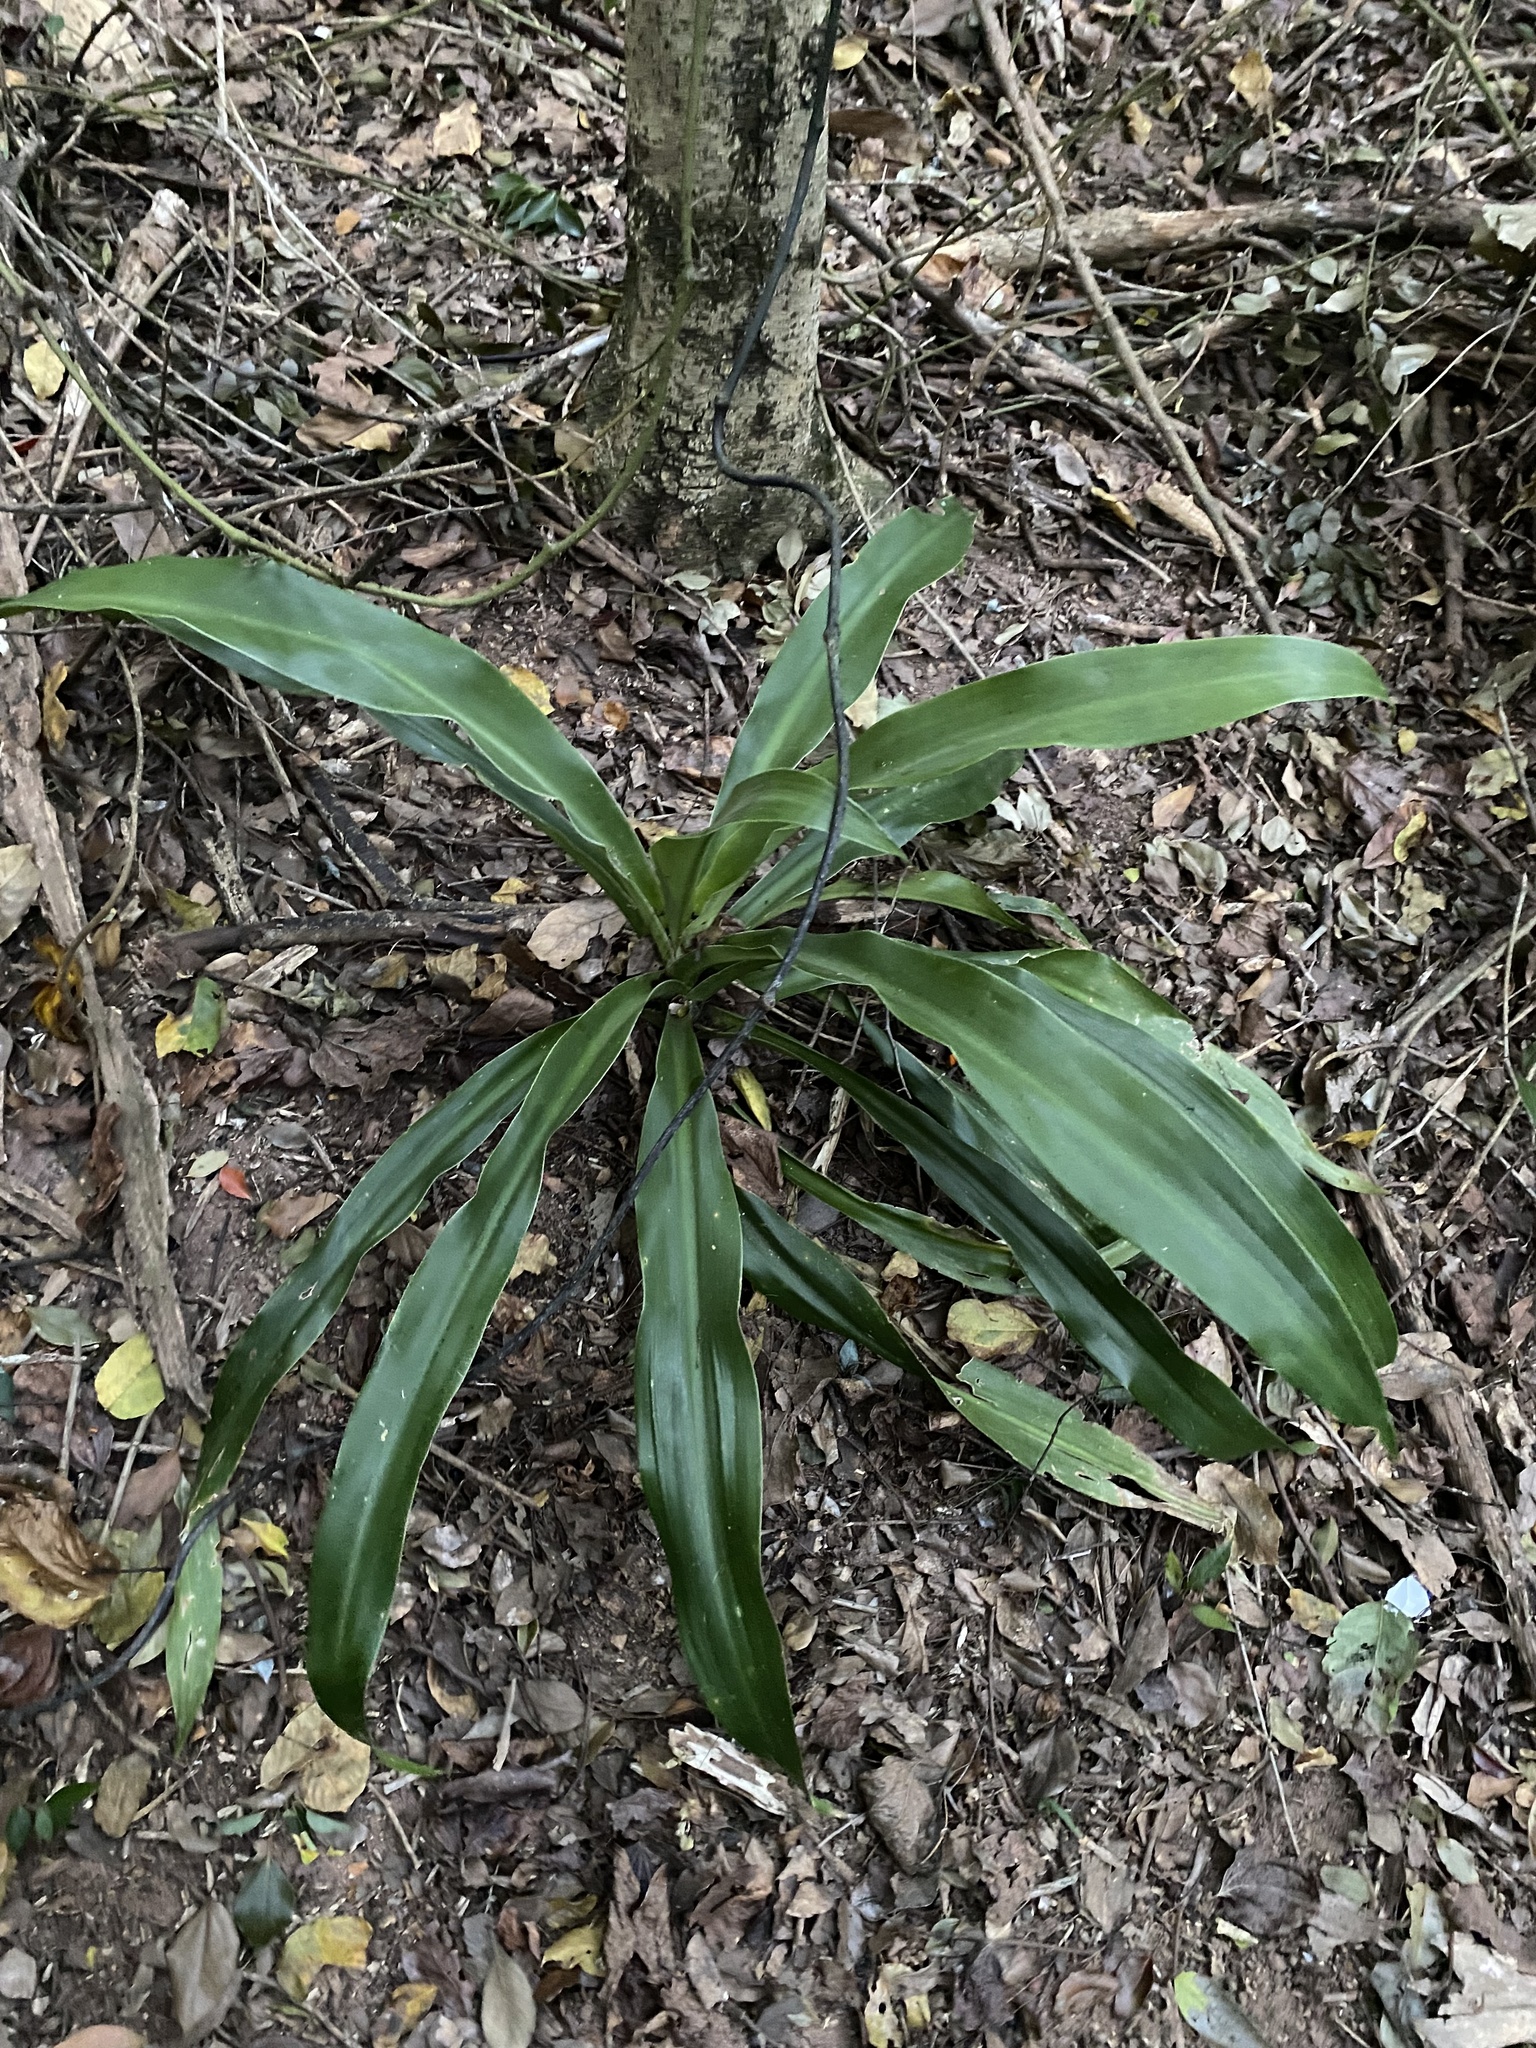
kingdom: Plantae
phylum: Tracheophyta
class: Liliopsida
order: Asparagales
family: Asparagaceae
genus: Dracaena
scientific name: Dracaena aletriformis
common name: Large-leaved dragon tree
